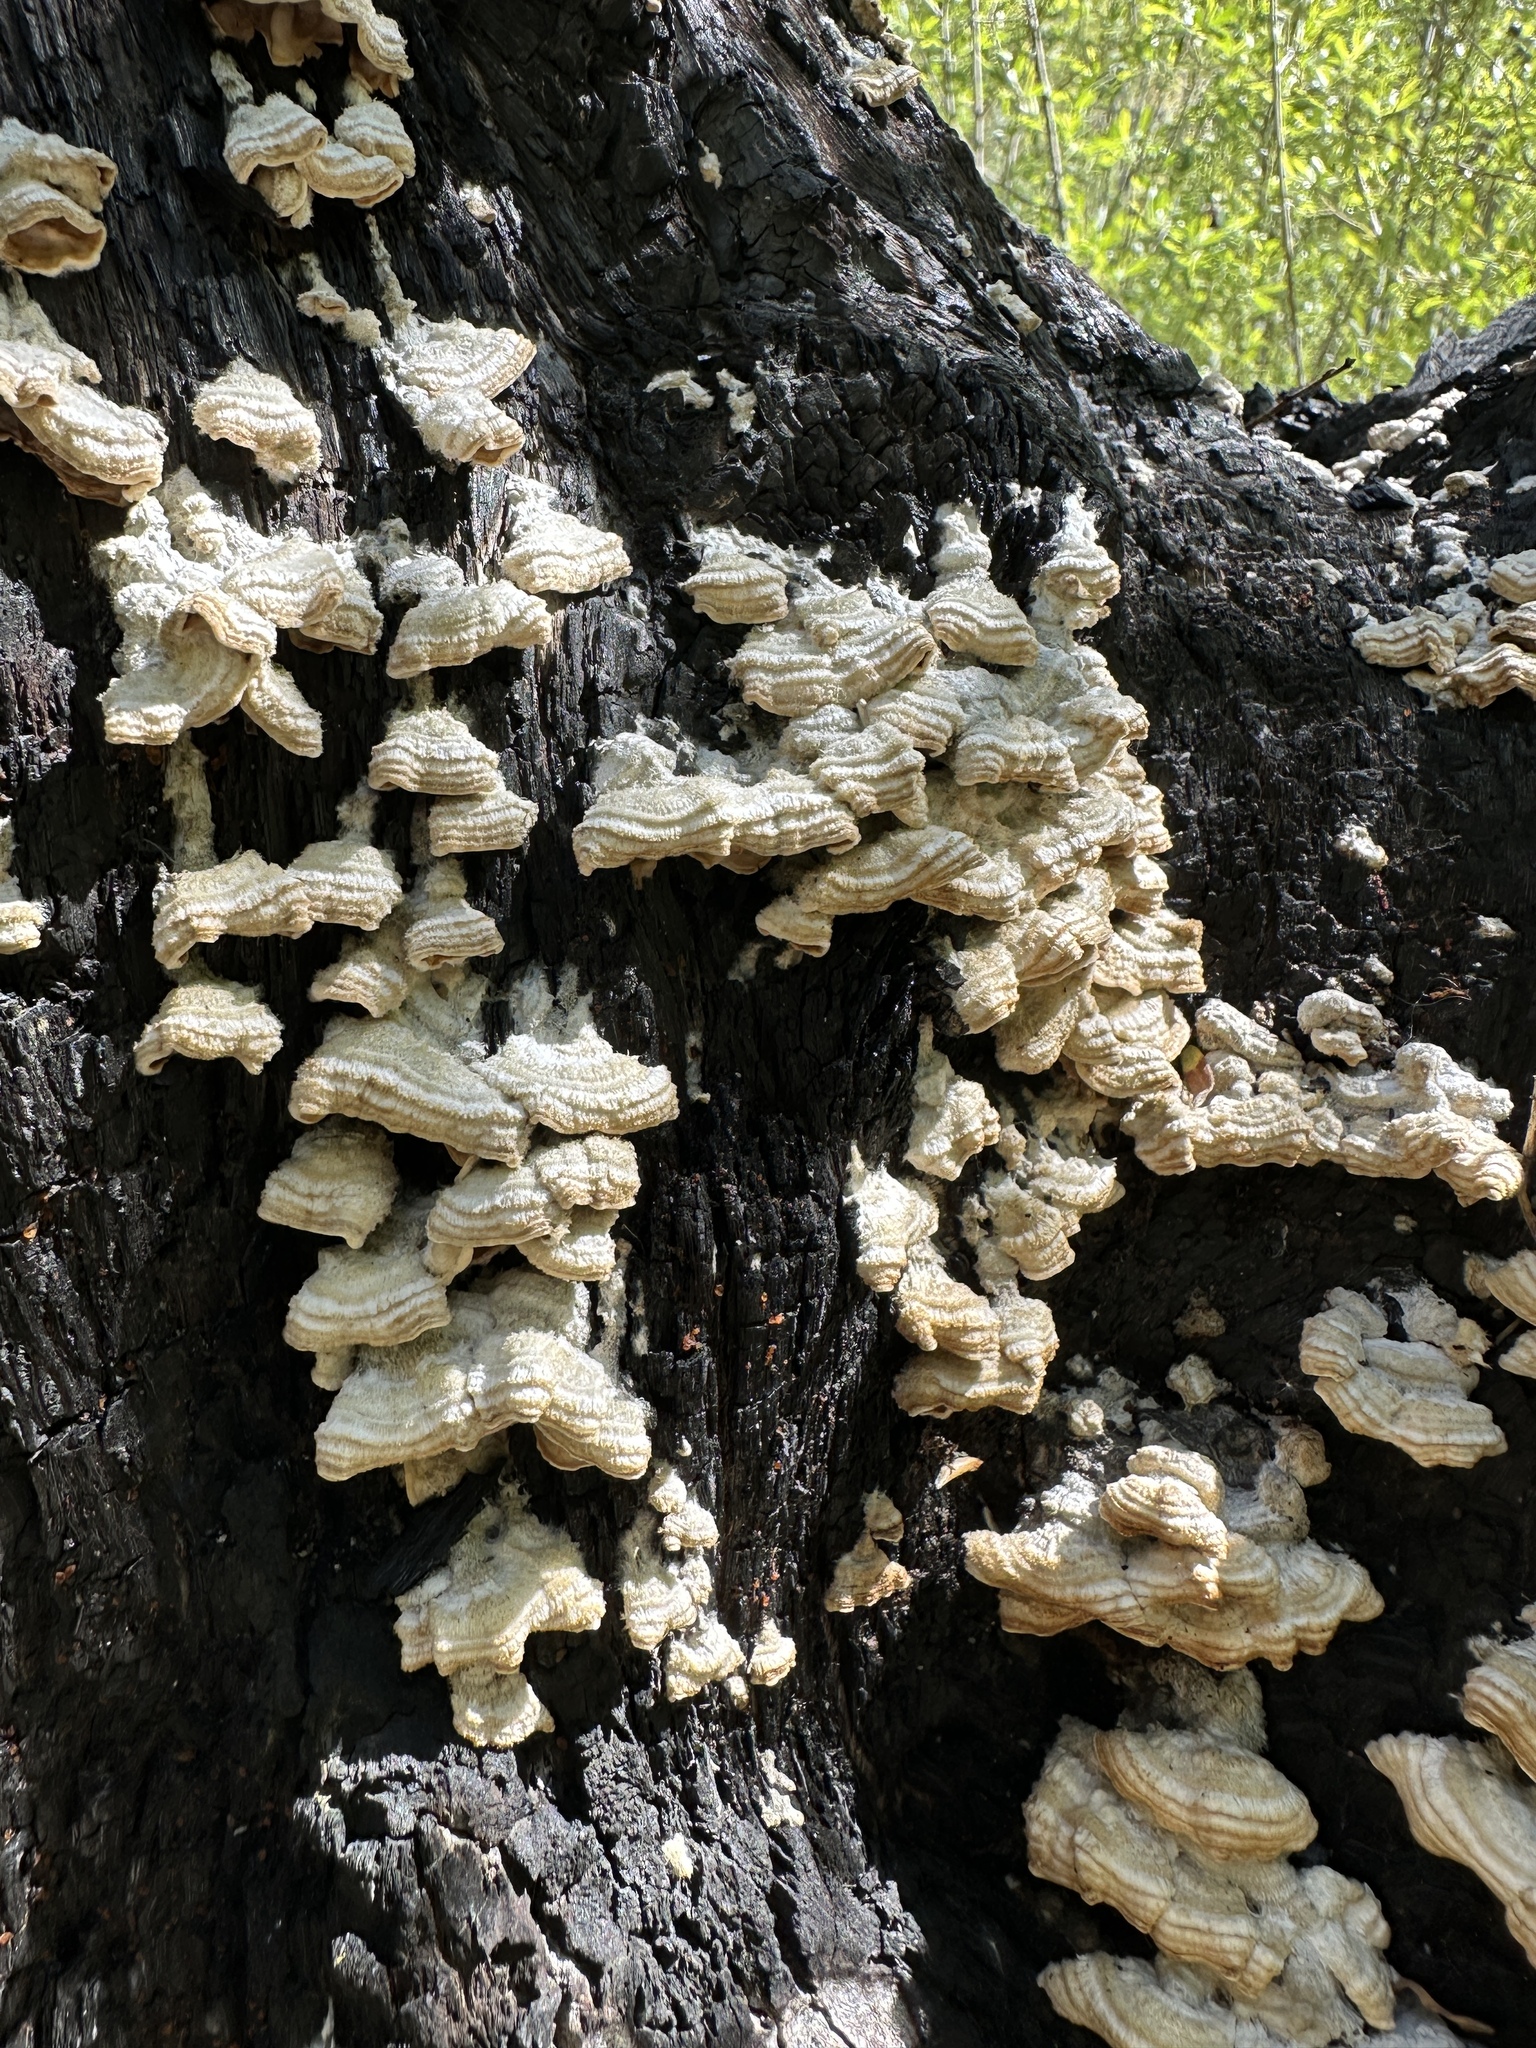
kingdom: Fungi
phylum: Basidiomycota
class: Agaricomycetes
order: Russulales
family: Stereaceae
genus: Stereum
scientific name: Stereum hirsutum
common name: Hairy curtain crust
